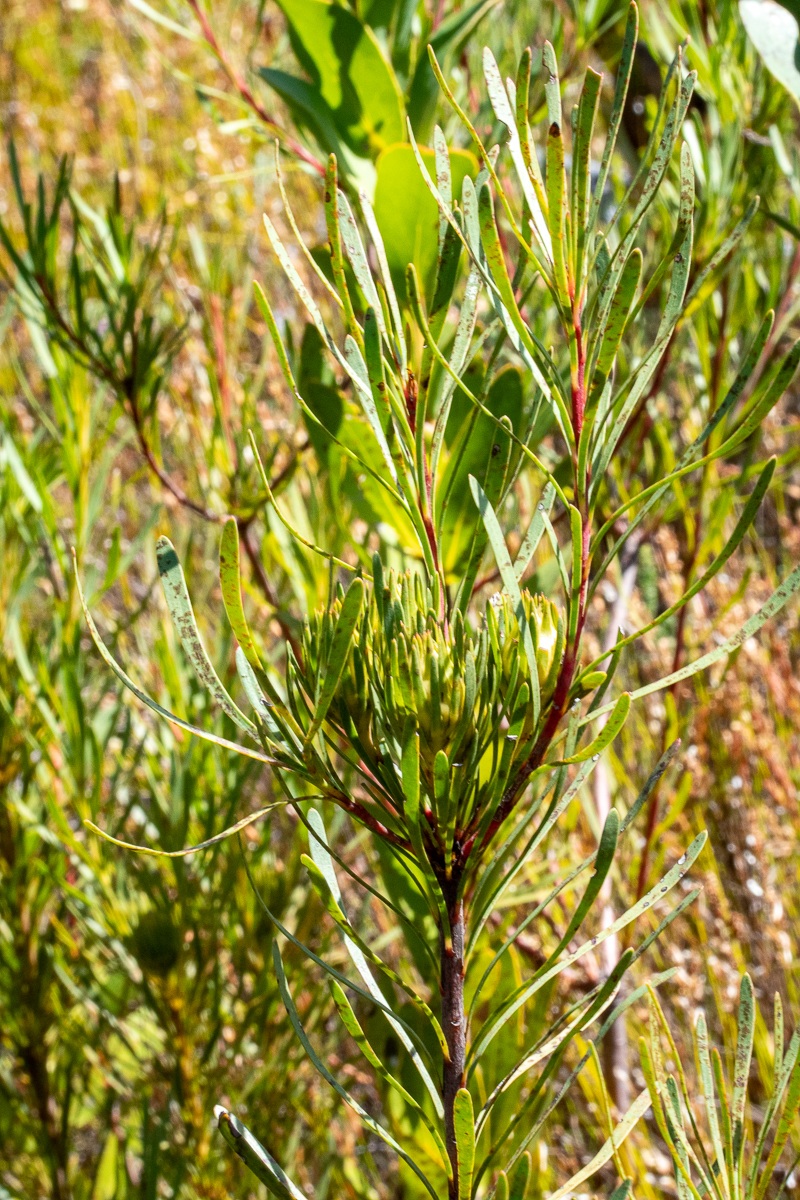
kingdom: Plantae
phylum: Tracheophyta
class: Magnoliopsida
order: Proteales
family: Proteaceae
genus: Aulax
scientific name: Aulax
